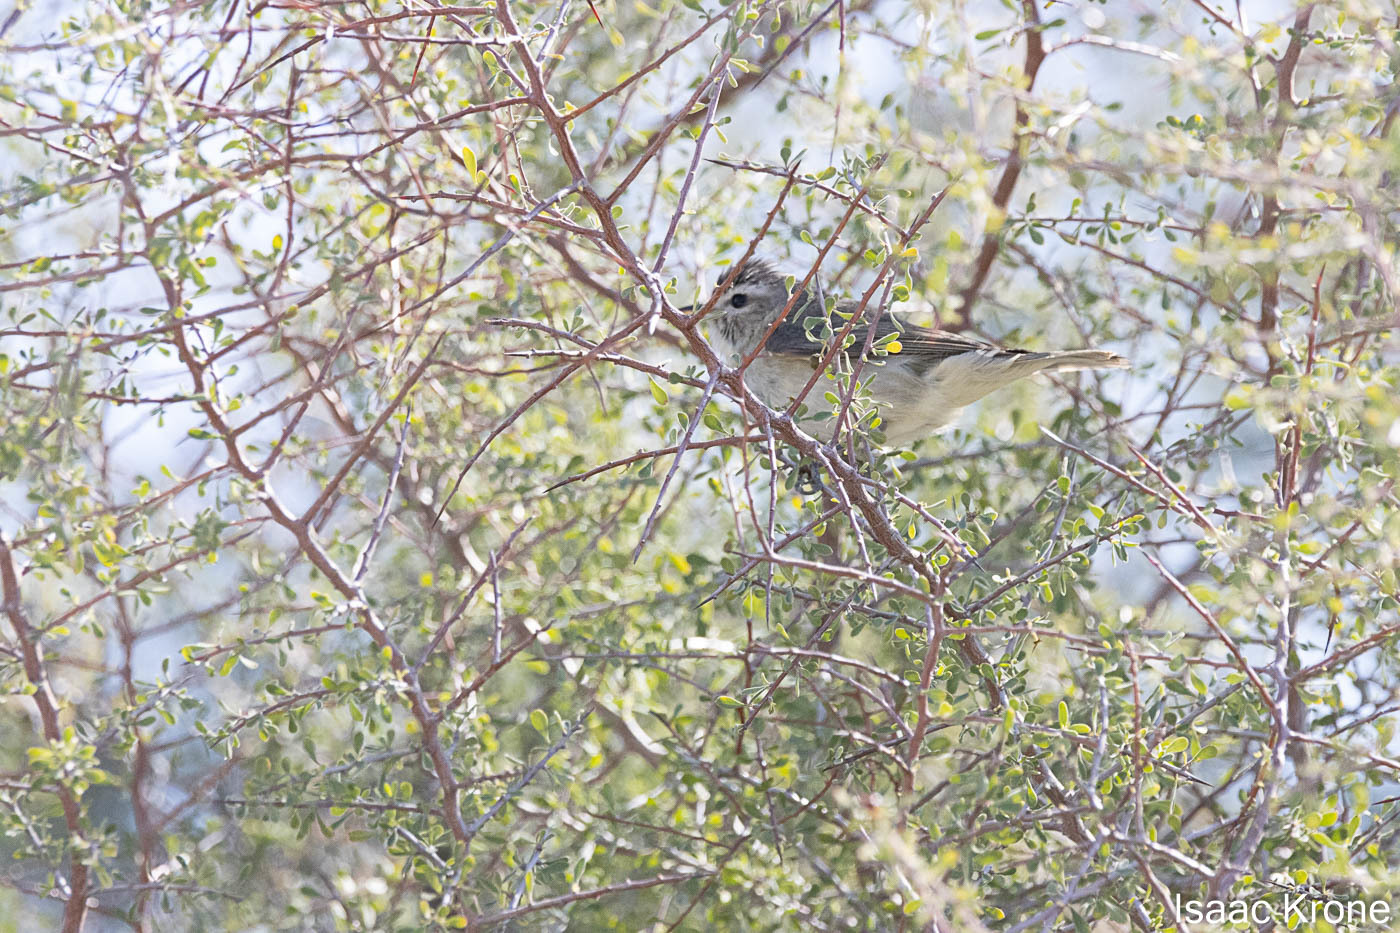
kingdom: Animalia
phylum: Chordata
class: Aves
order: Passeriformes
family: Vireonidae
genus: Vireo
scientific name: Vireo gilvus
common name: Warbling vireo
